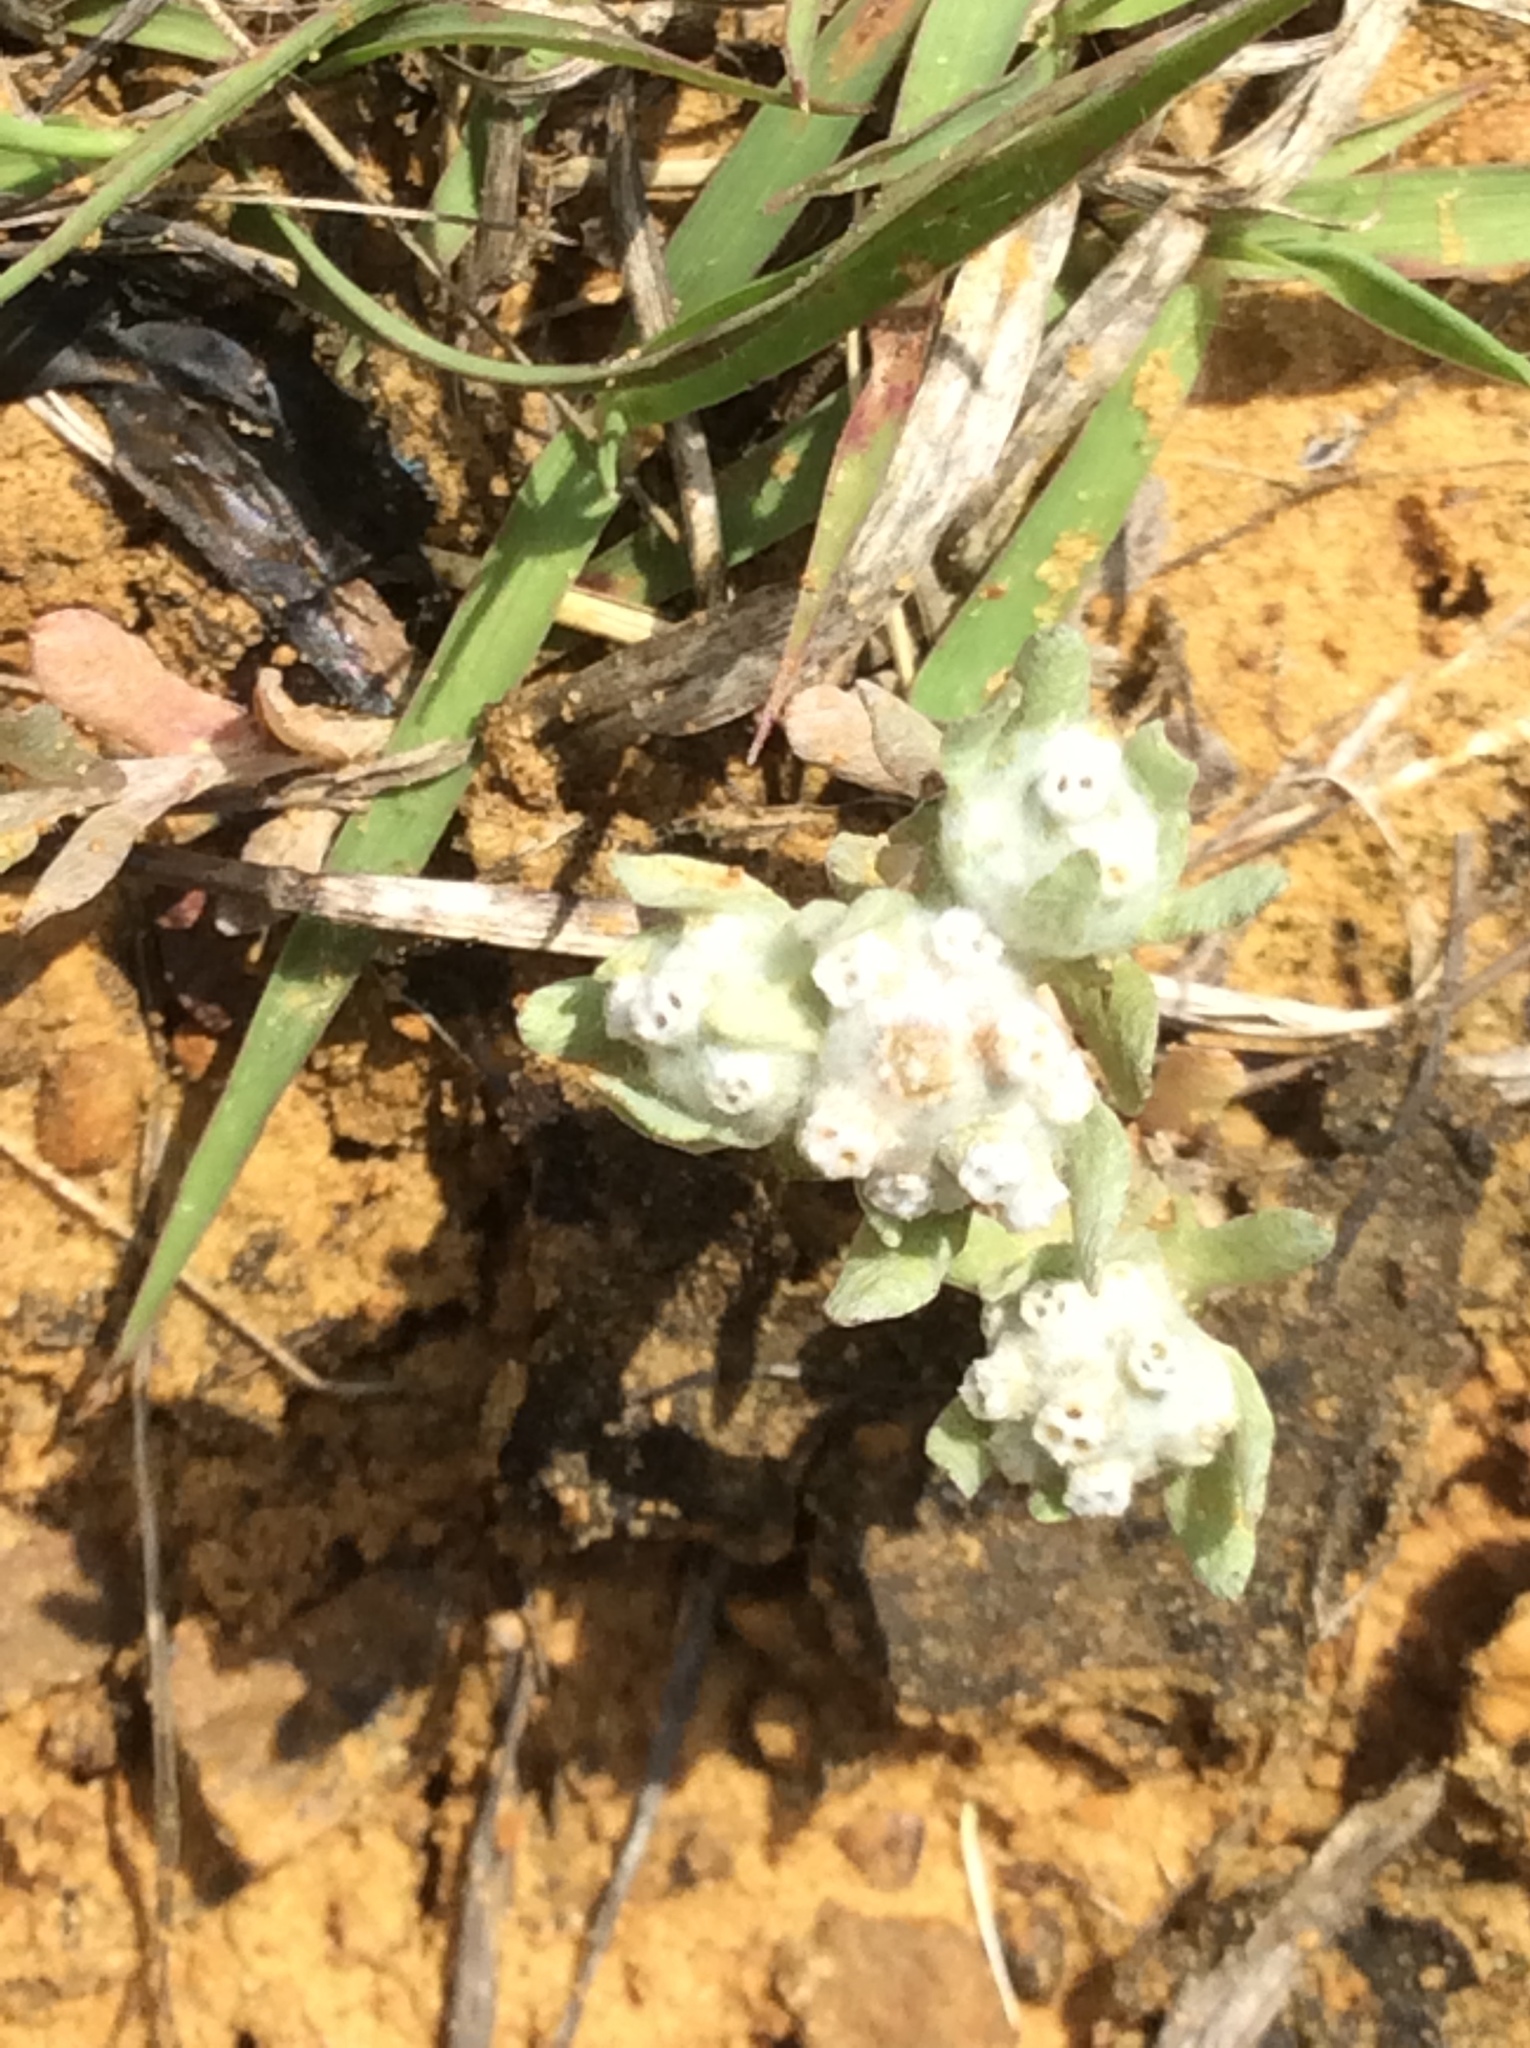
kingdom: Plantae
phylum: Tracheophyta
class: Magnoliopsida
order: Asterales
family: Asteraceae
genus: Diaperia
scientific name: Diaperia verna
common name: Many-stem rabbit-tobacco
